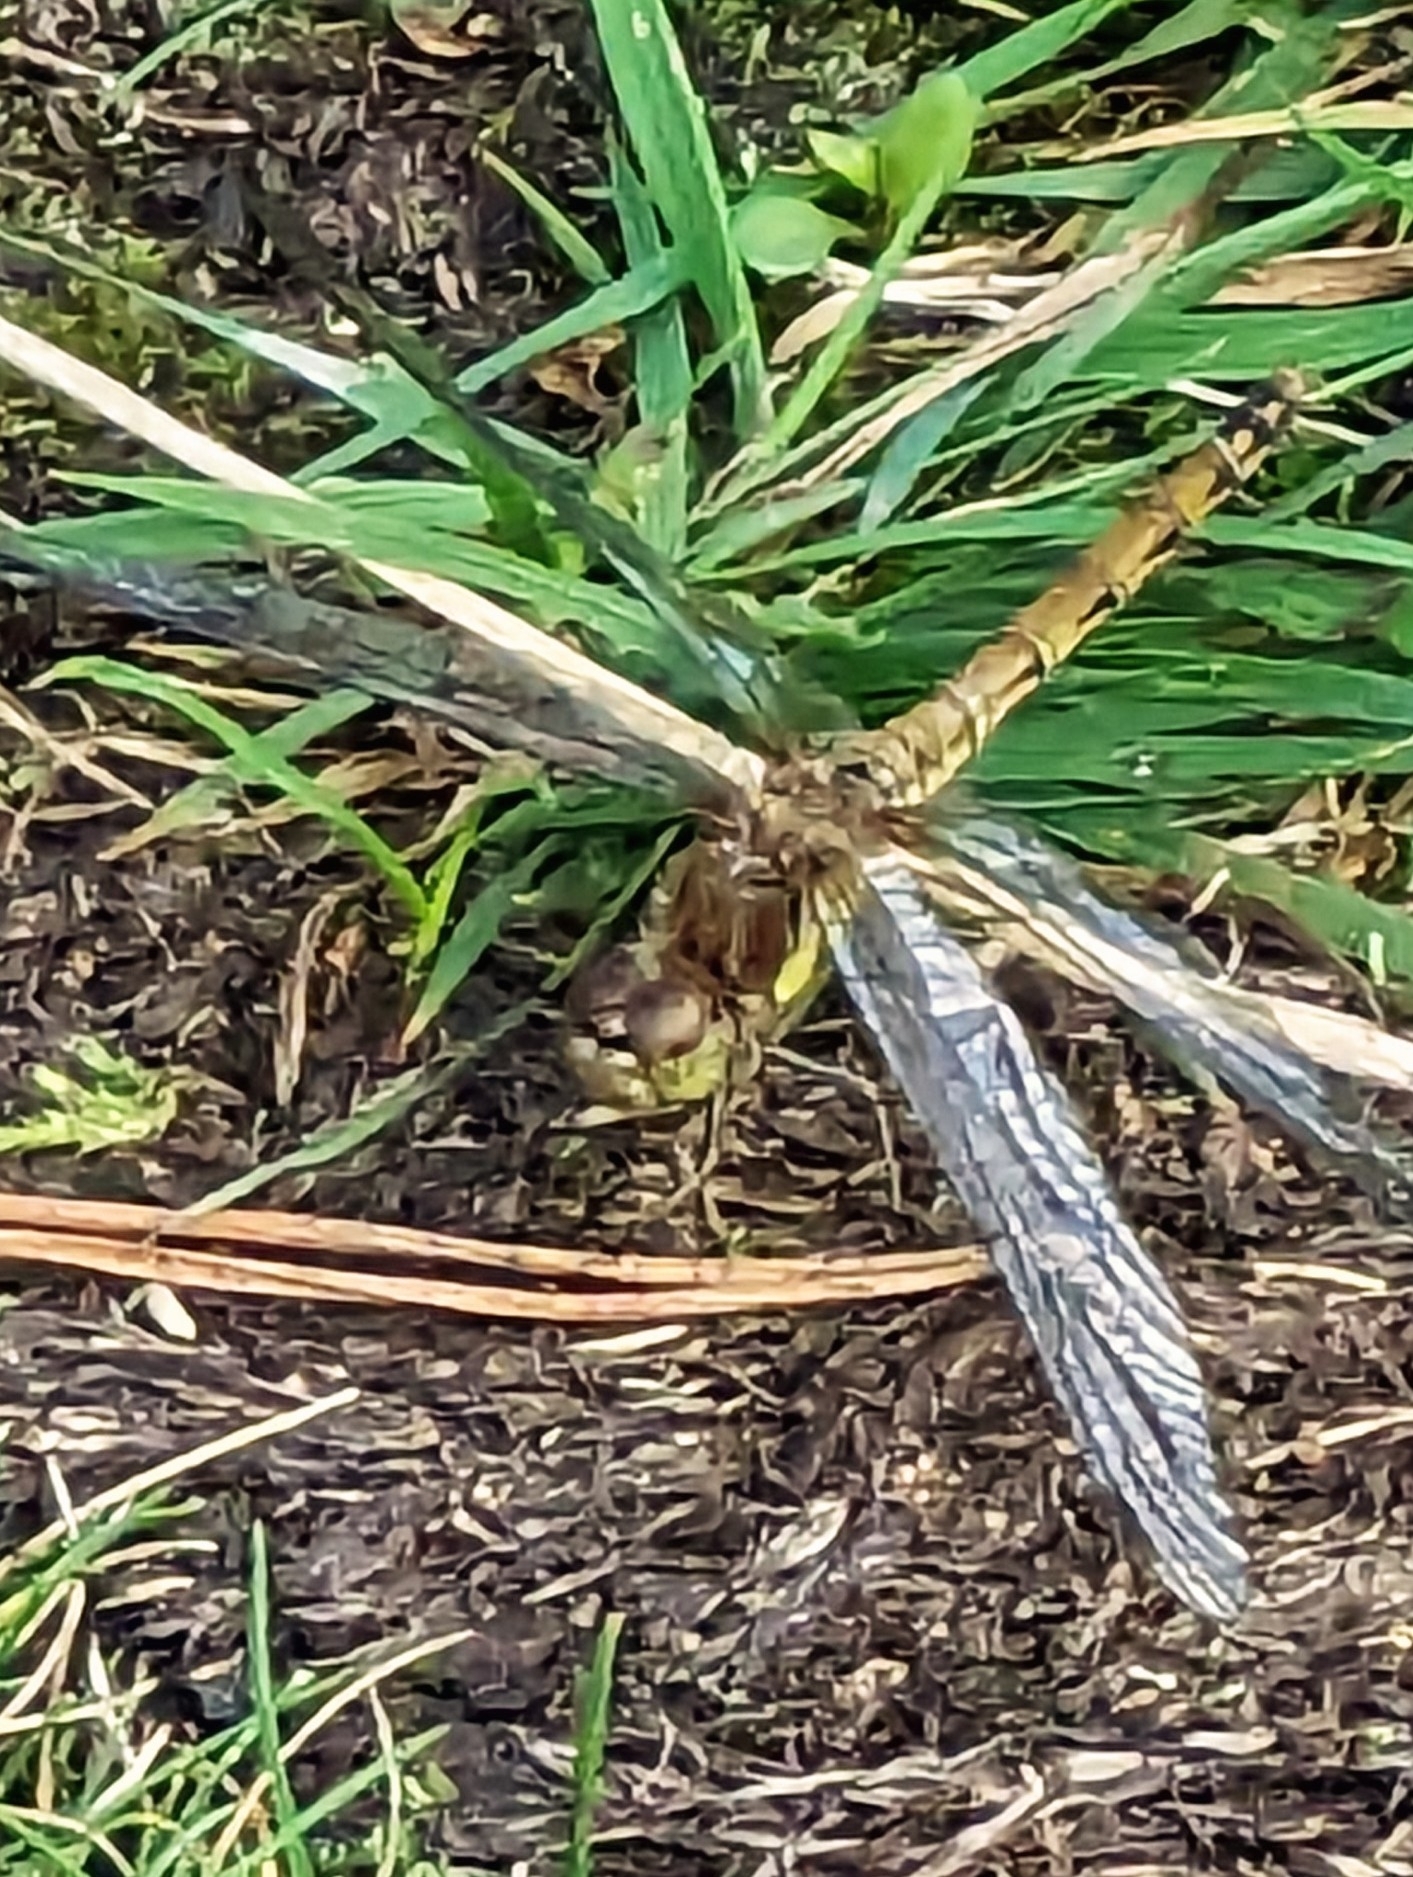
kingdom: Animalia
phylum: Arthropoda
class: Insecta
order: Odonata
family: Libellulidae
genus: Sympetrum
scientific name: Sympetrum striolatum
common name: Common darter
